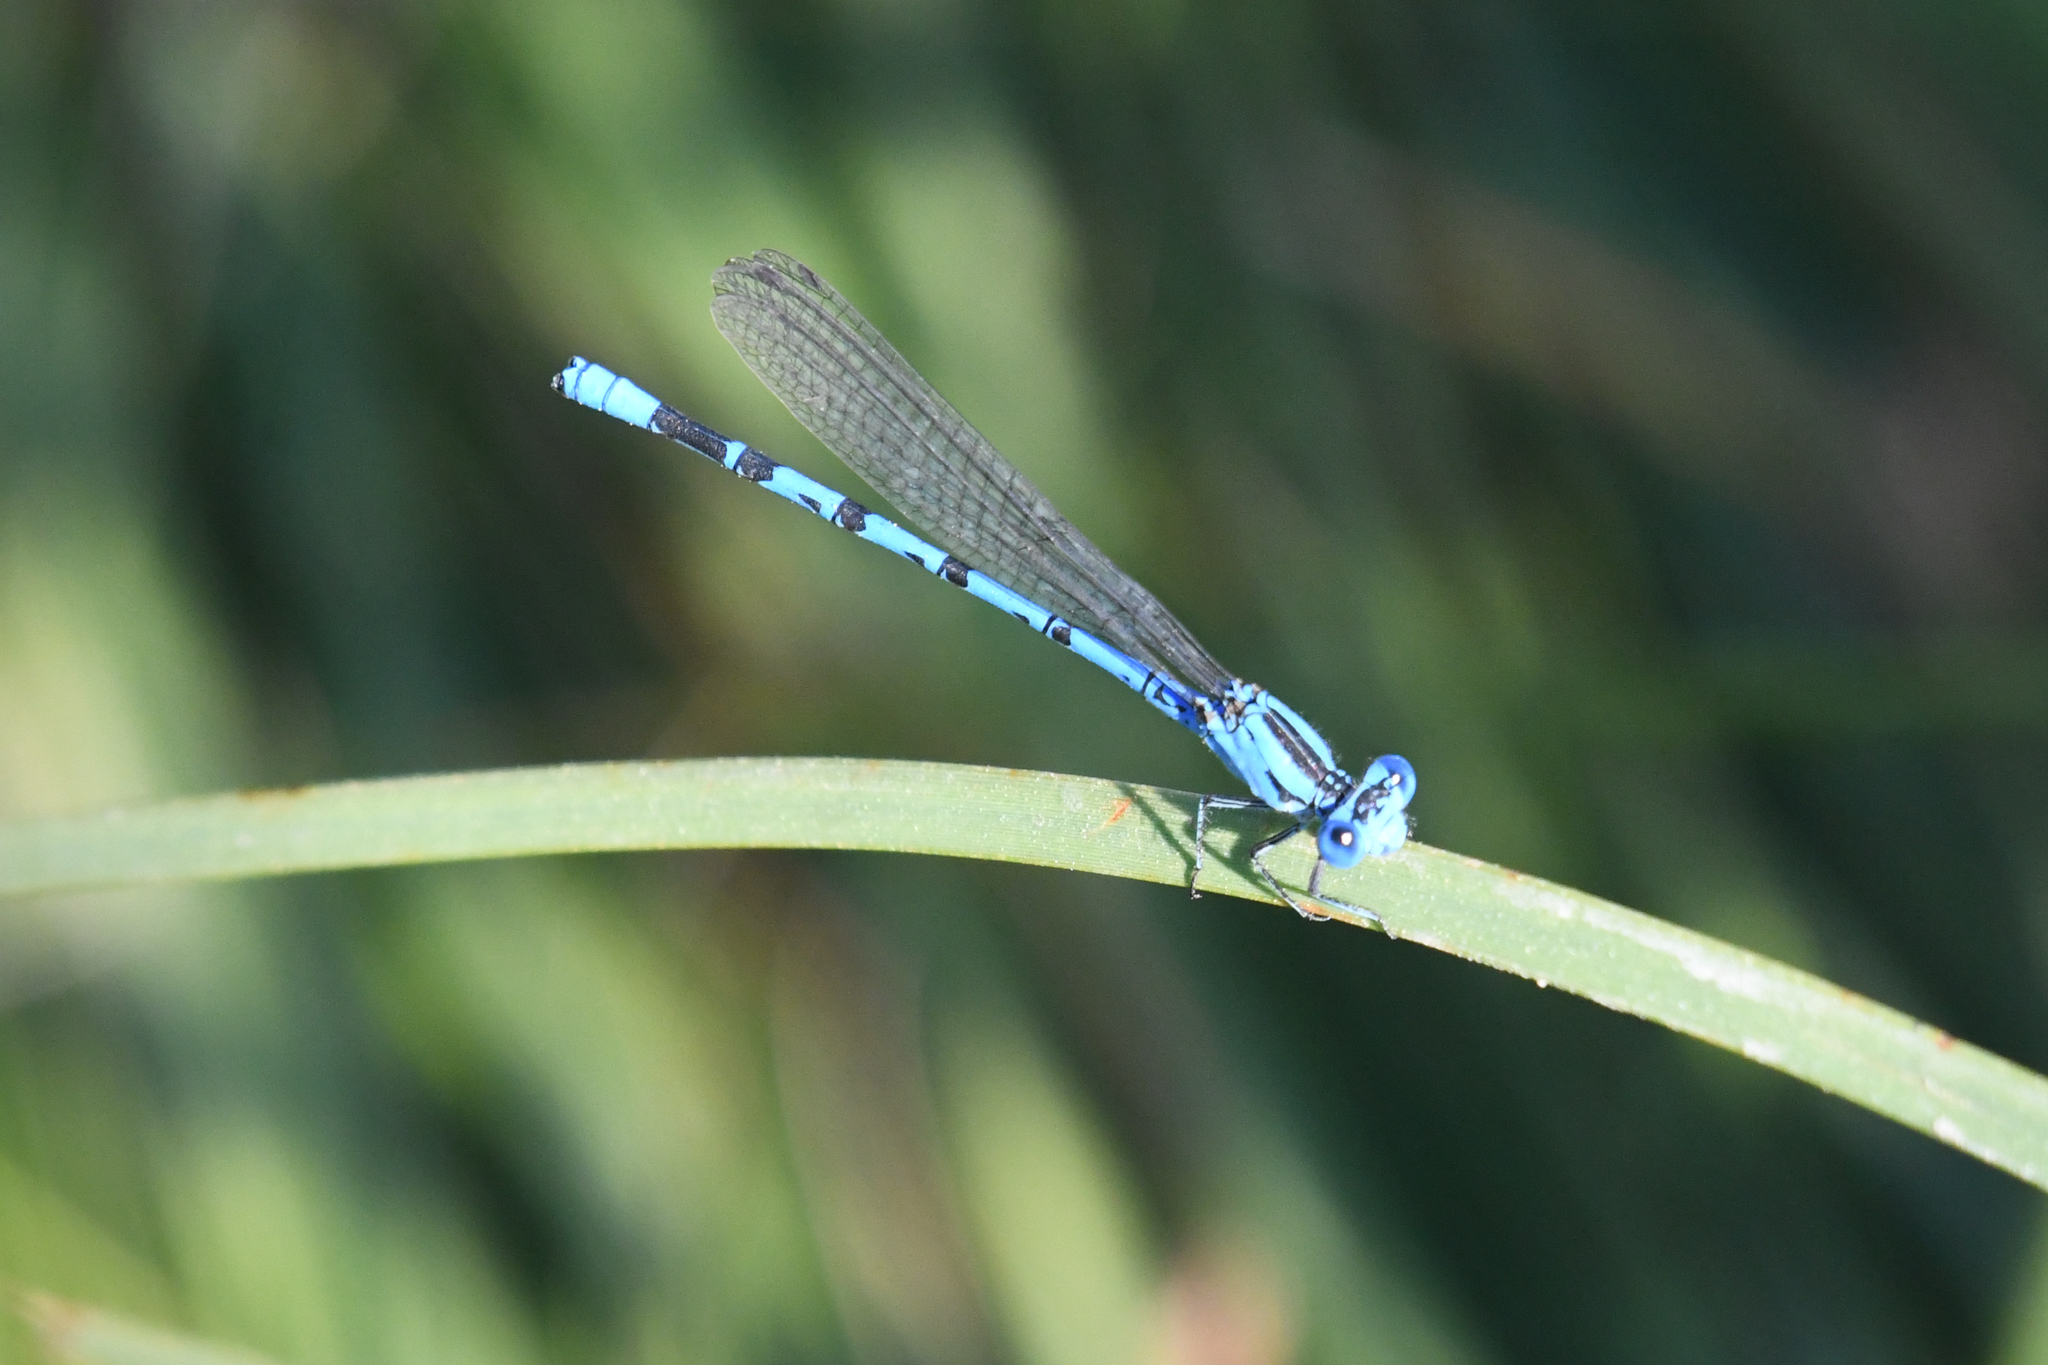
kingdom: Animalia
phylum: Arthropoda
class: Insecta
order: Odonata
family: Coenagrionidae
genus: Argia
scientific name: Argia vivida
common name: Vivid dancer
